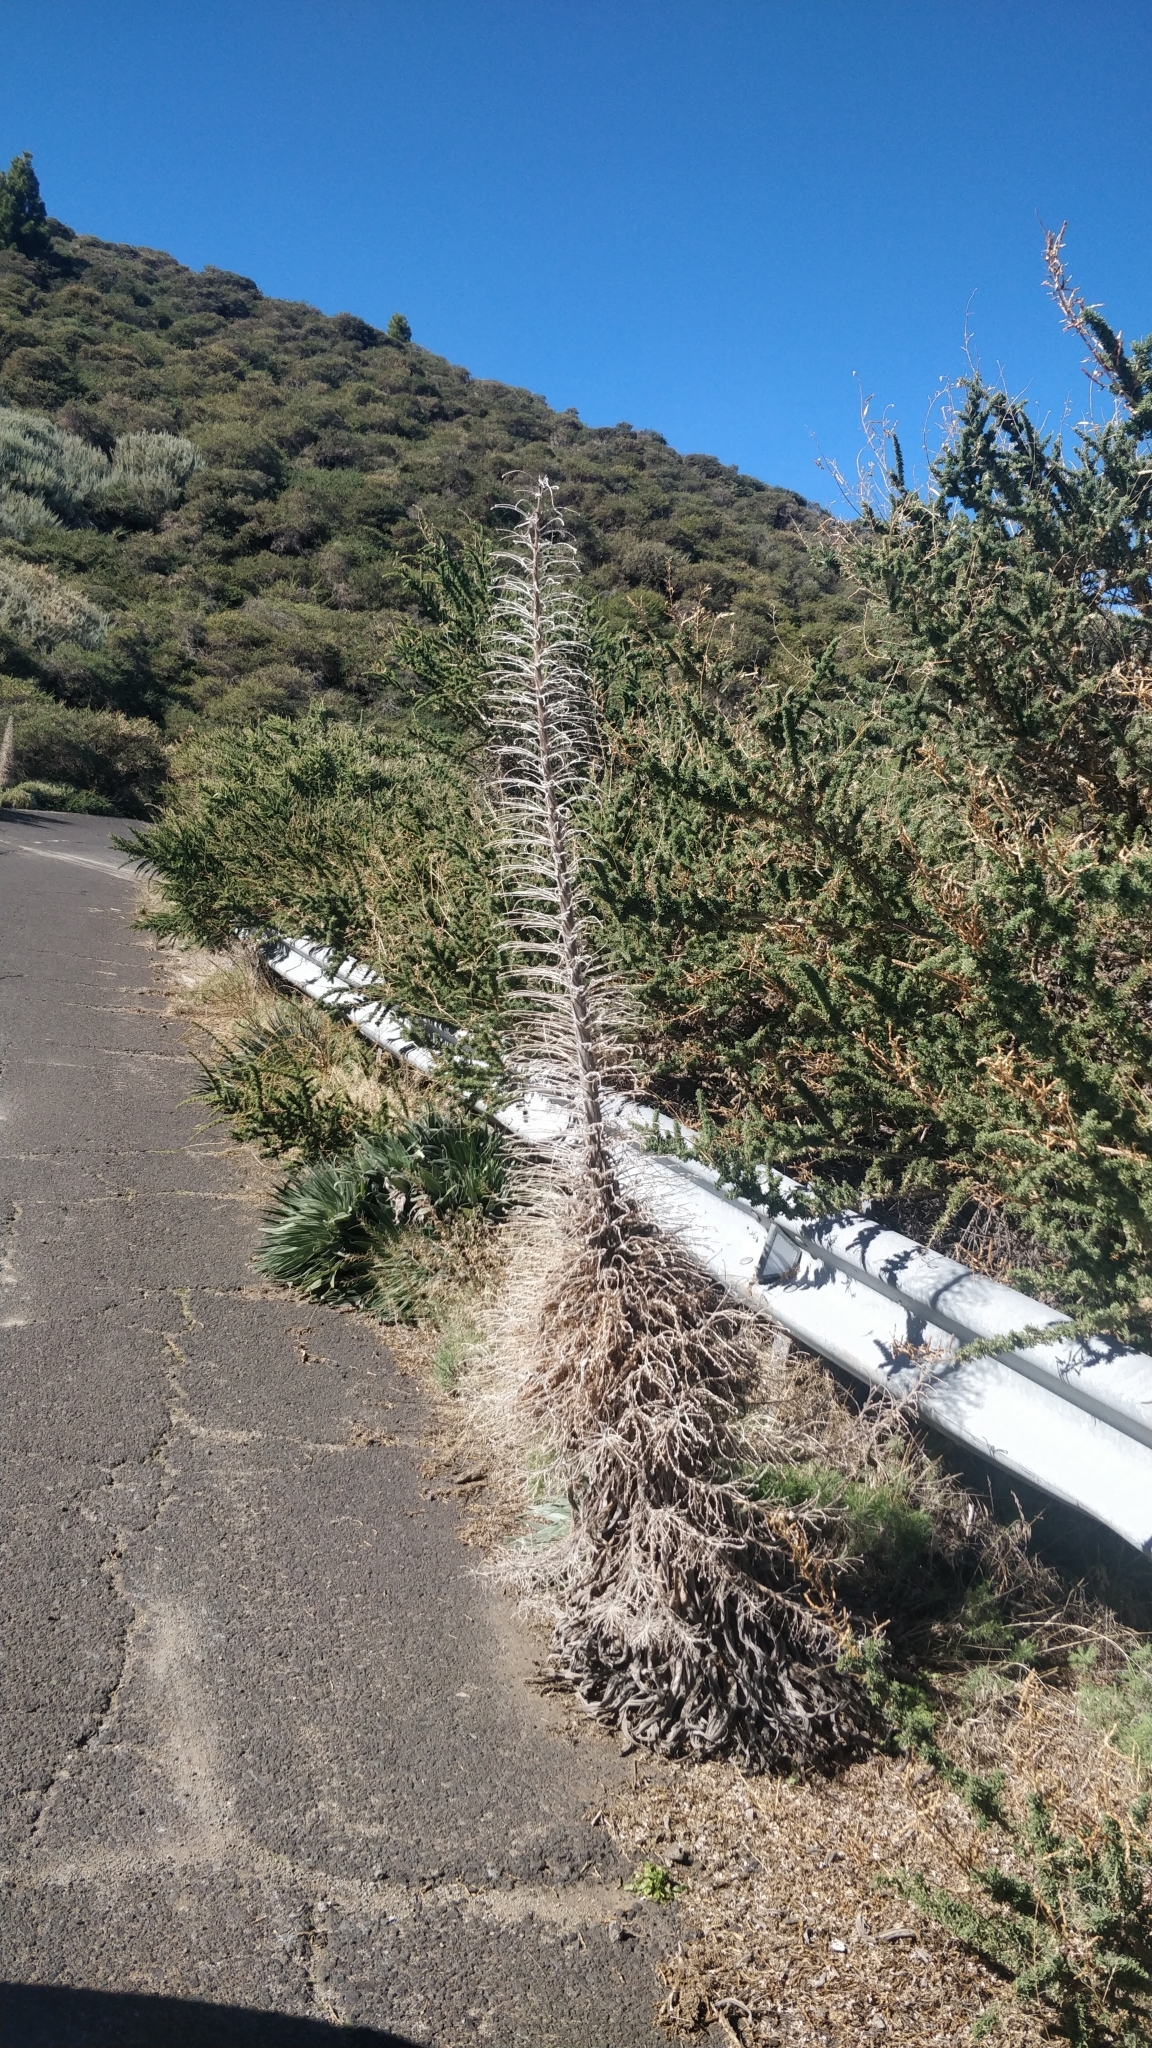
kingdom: Plantae
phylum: Tracheophyta
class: Magnoliopsida
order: Boraginales
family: Boraginaceae
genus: Echium
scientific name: Echium perezii
